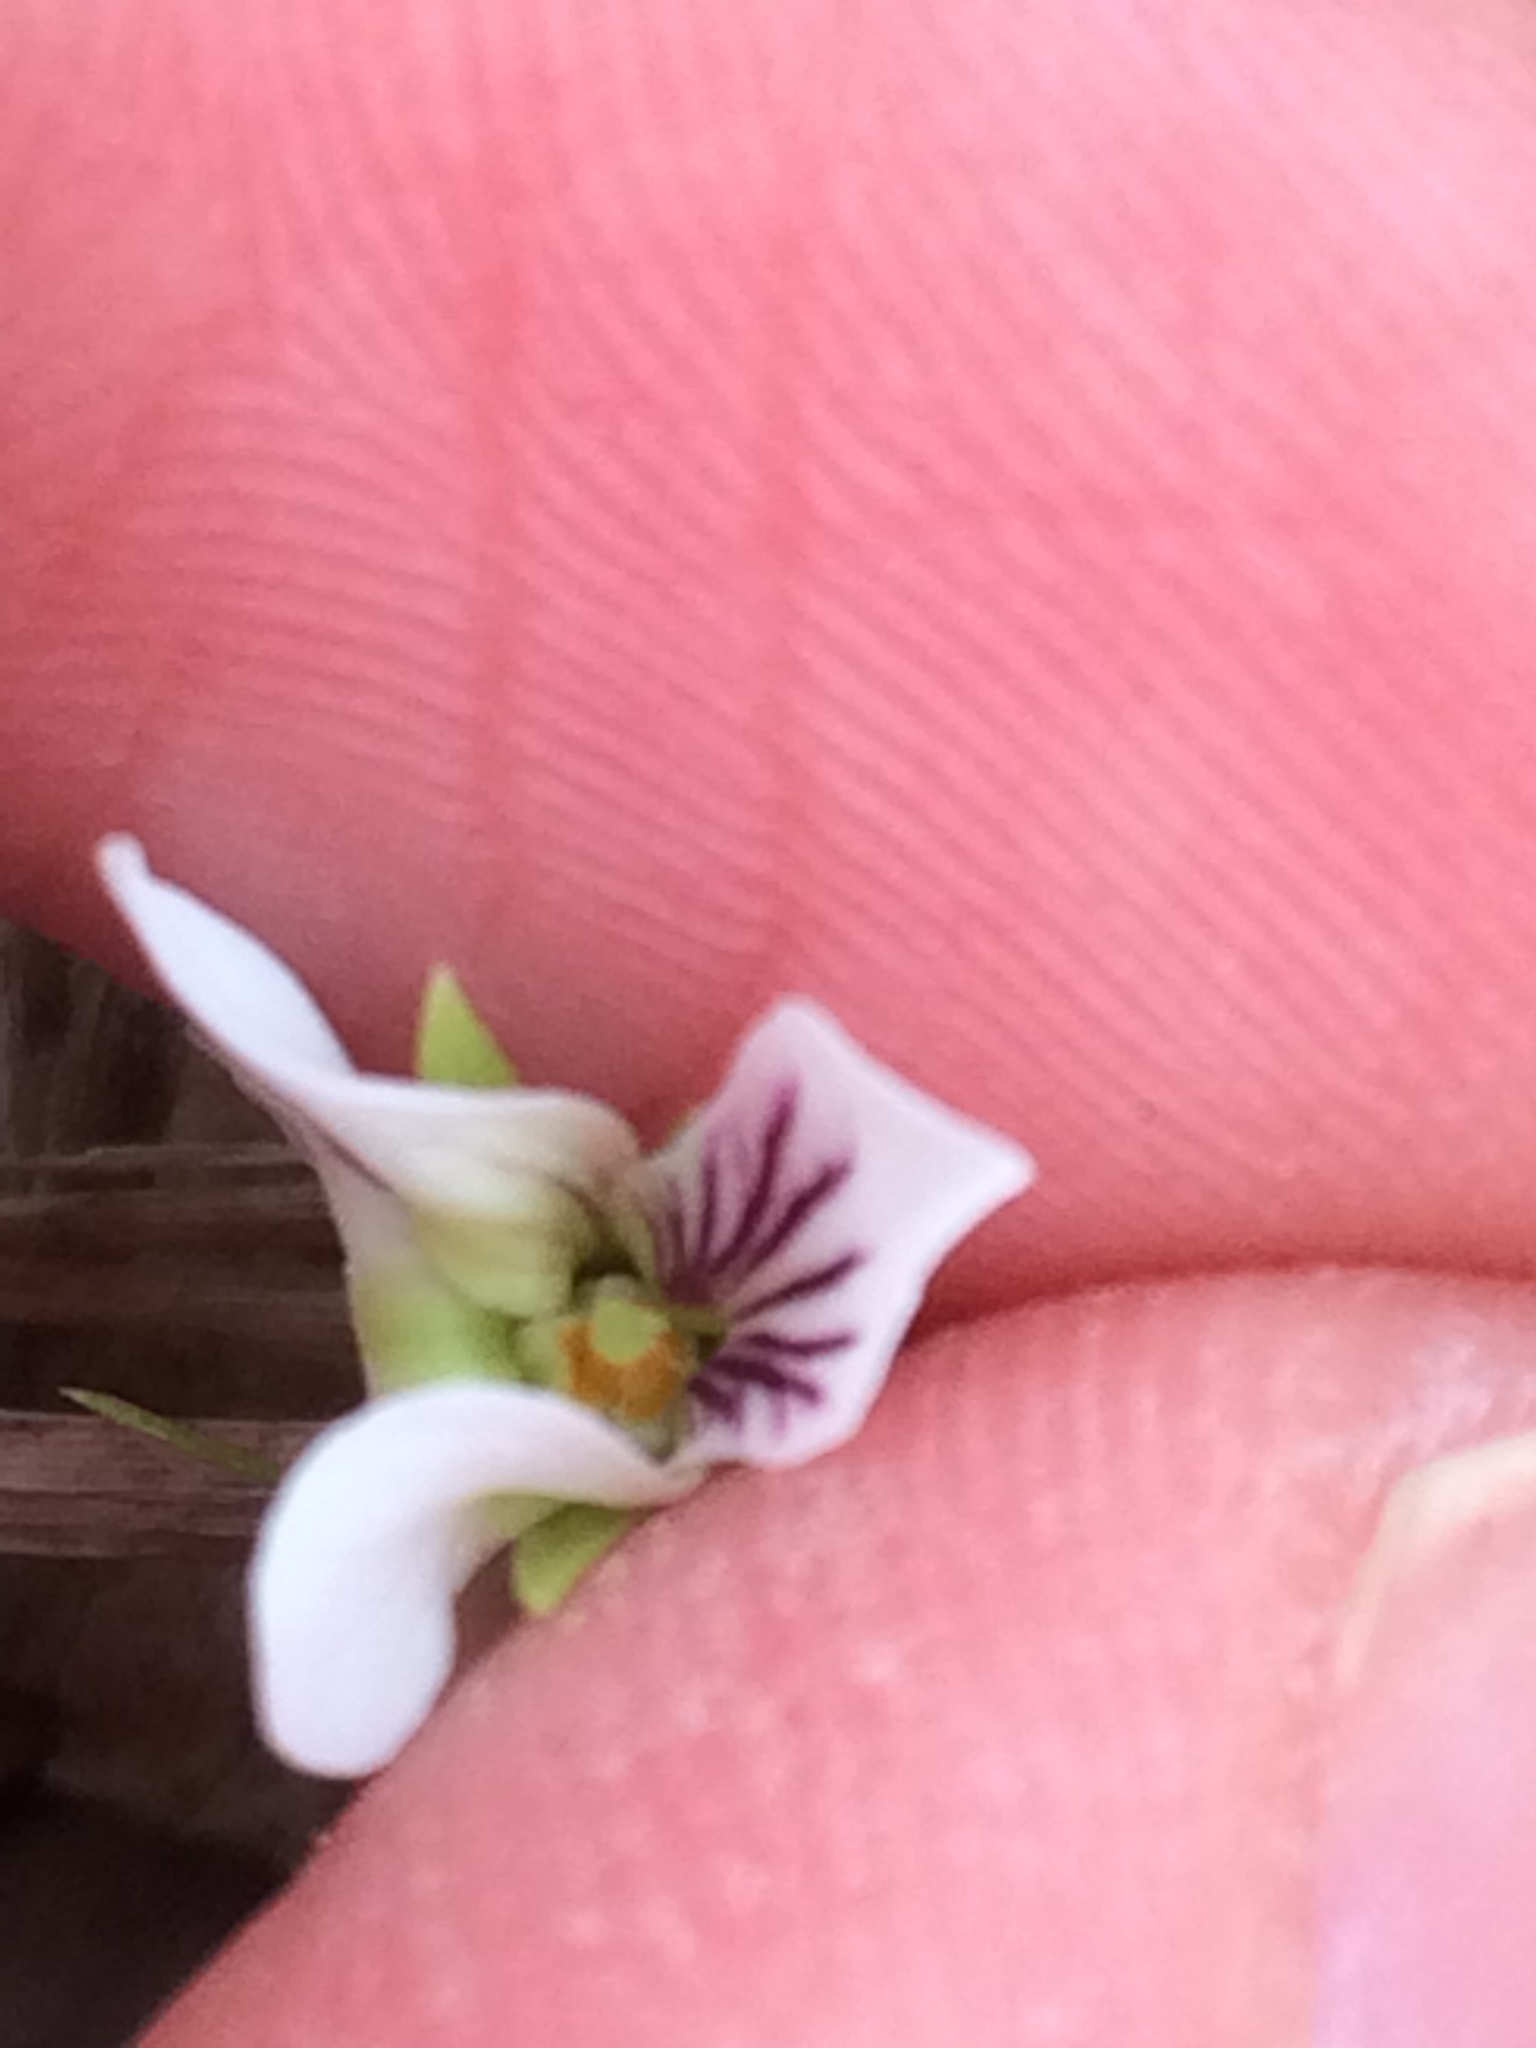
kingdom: Plantae
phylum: Tracheophyta
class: Magnoliopsida
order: Malpighiales
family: Violaceae
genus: Viola
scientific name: Viola primulifolia
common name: Primrose-leaf violet
